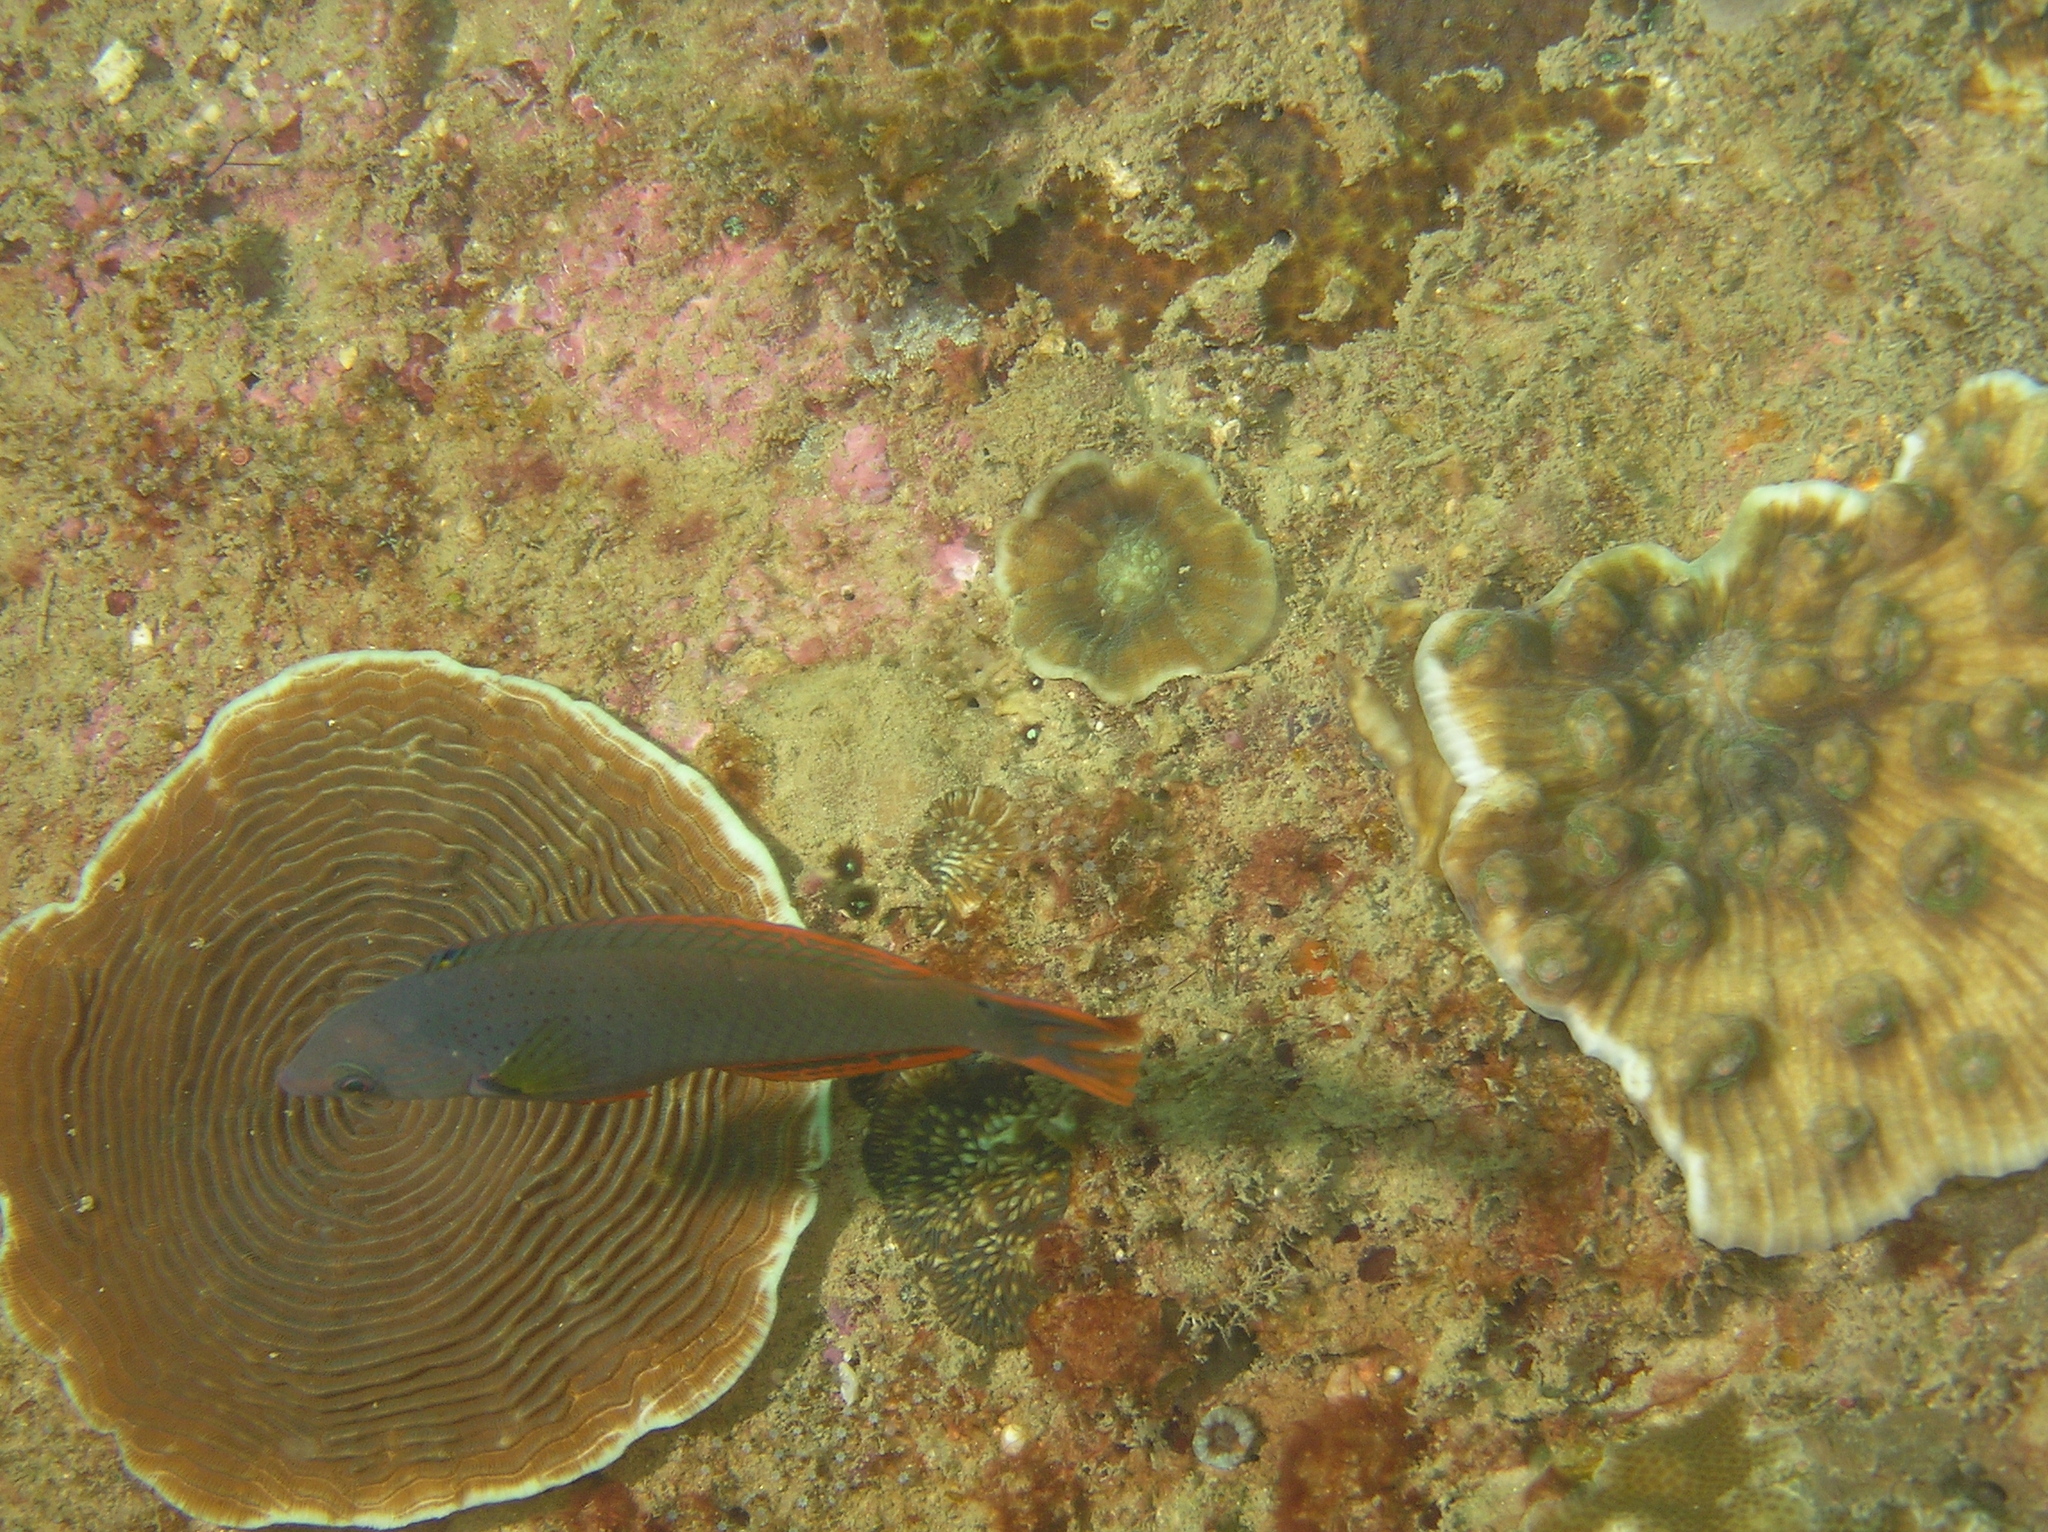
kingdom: Animalia
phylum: Chordata
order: Perciformes
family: Labridae
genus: Halichoeres
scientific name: Halichoeres melanochir
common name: Black wrasse
